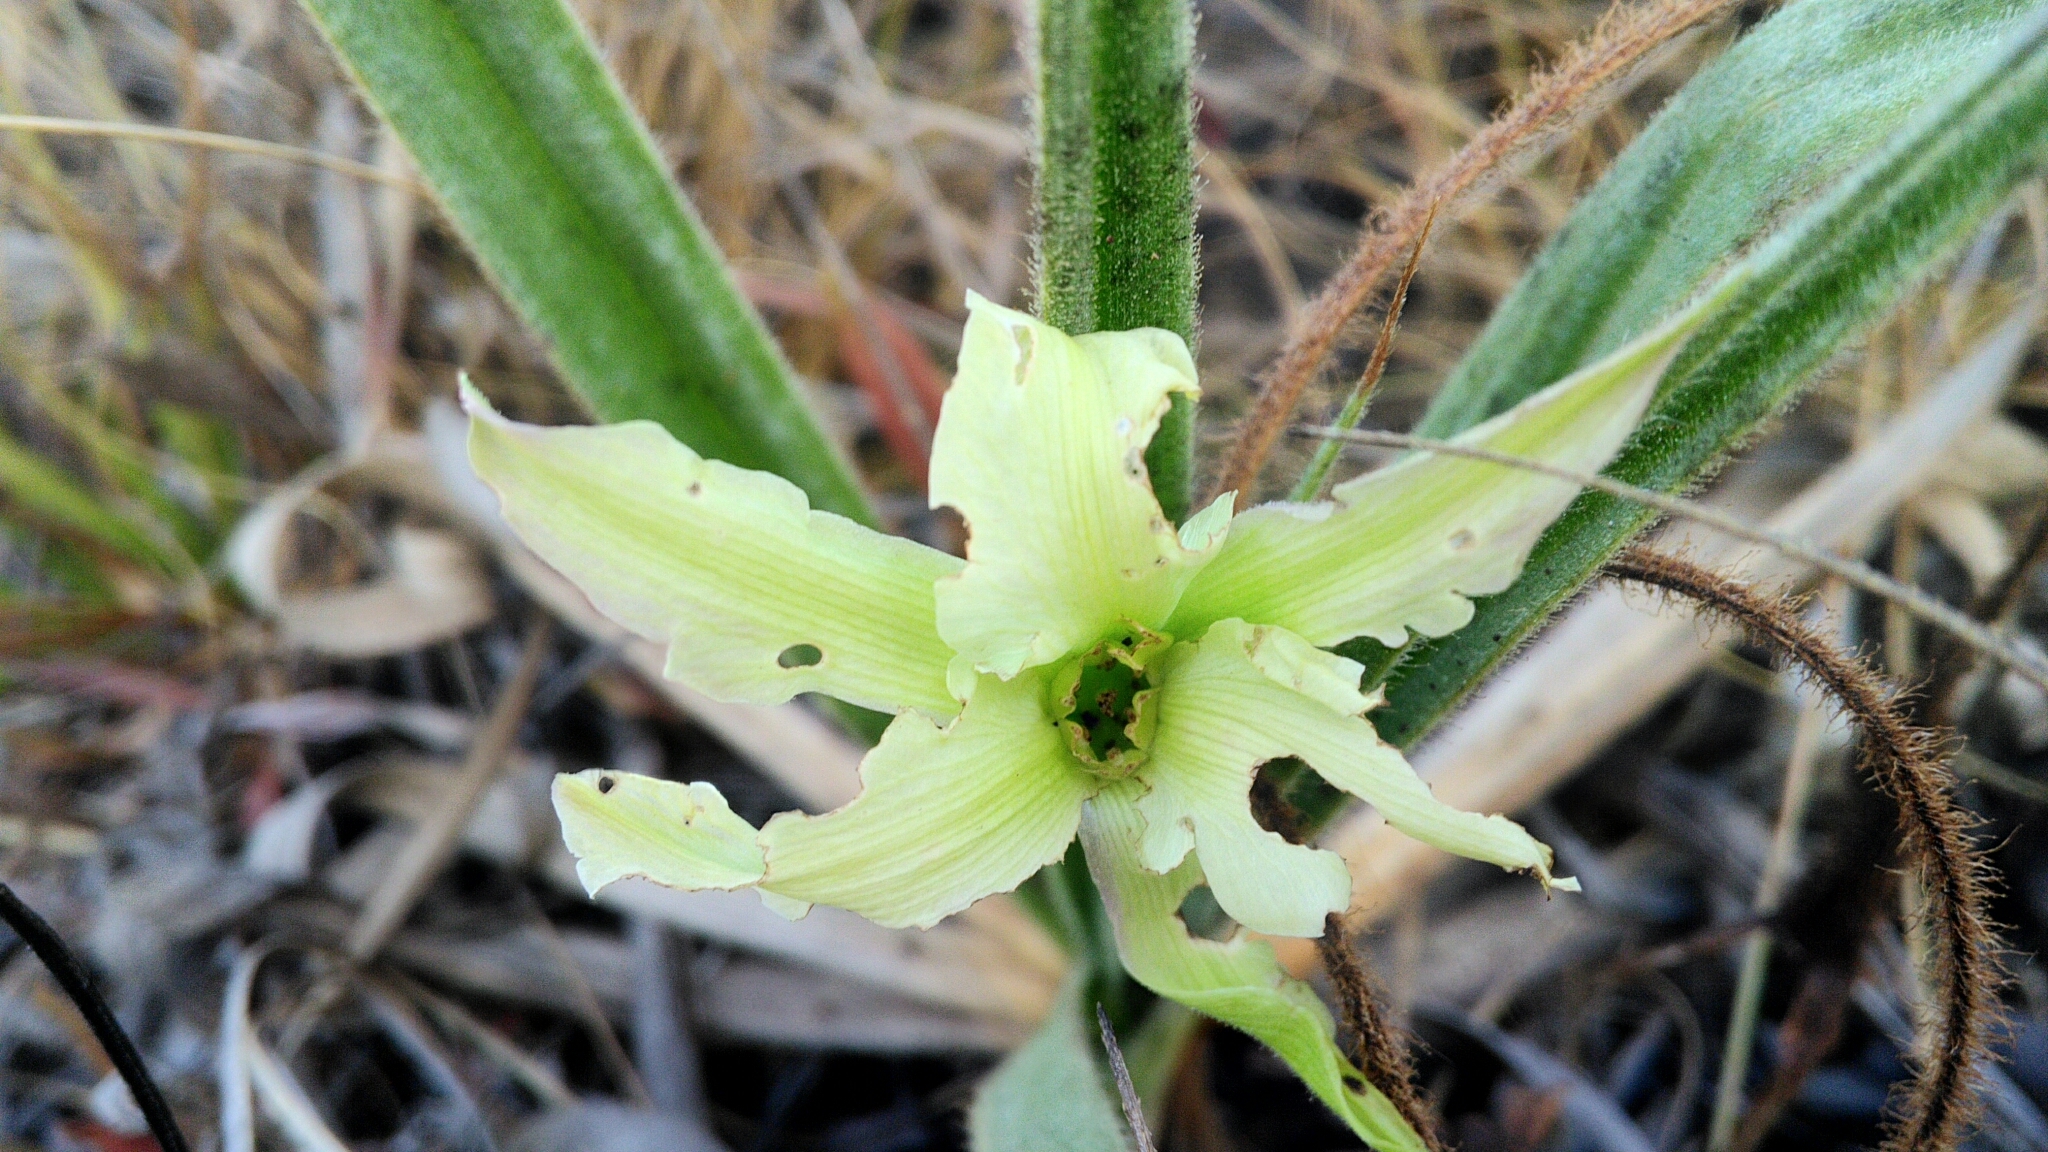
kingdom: Plantae
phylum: Tracheophyta
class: Liliopsida
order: Pandanales
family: Velloziaceae
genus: Barbacenia
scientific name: Barbacenia lymansmithii
